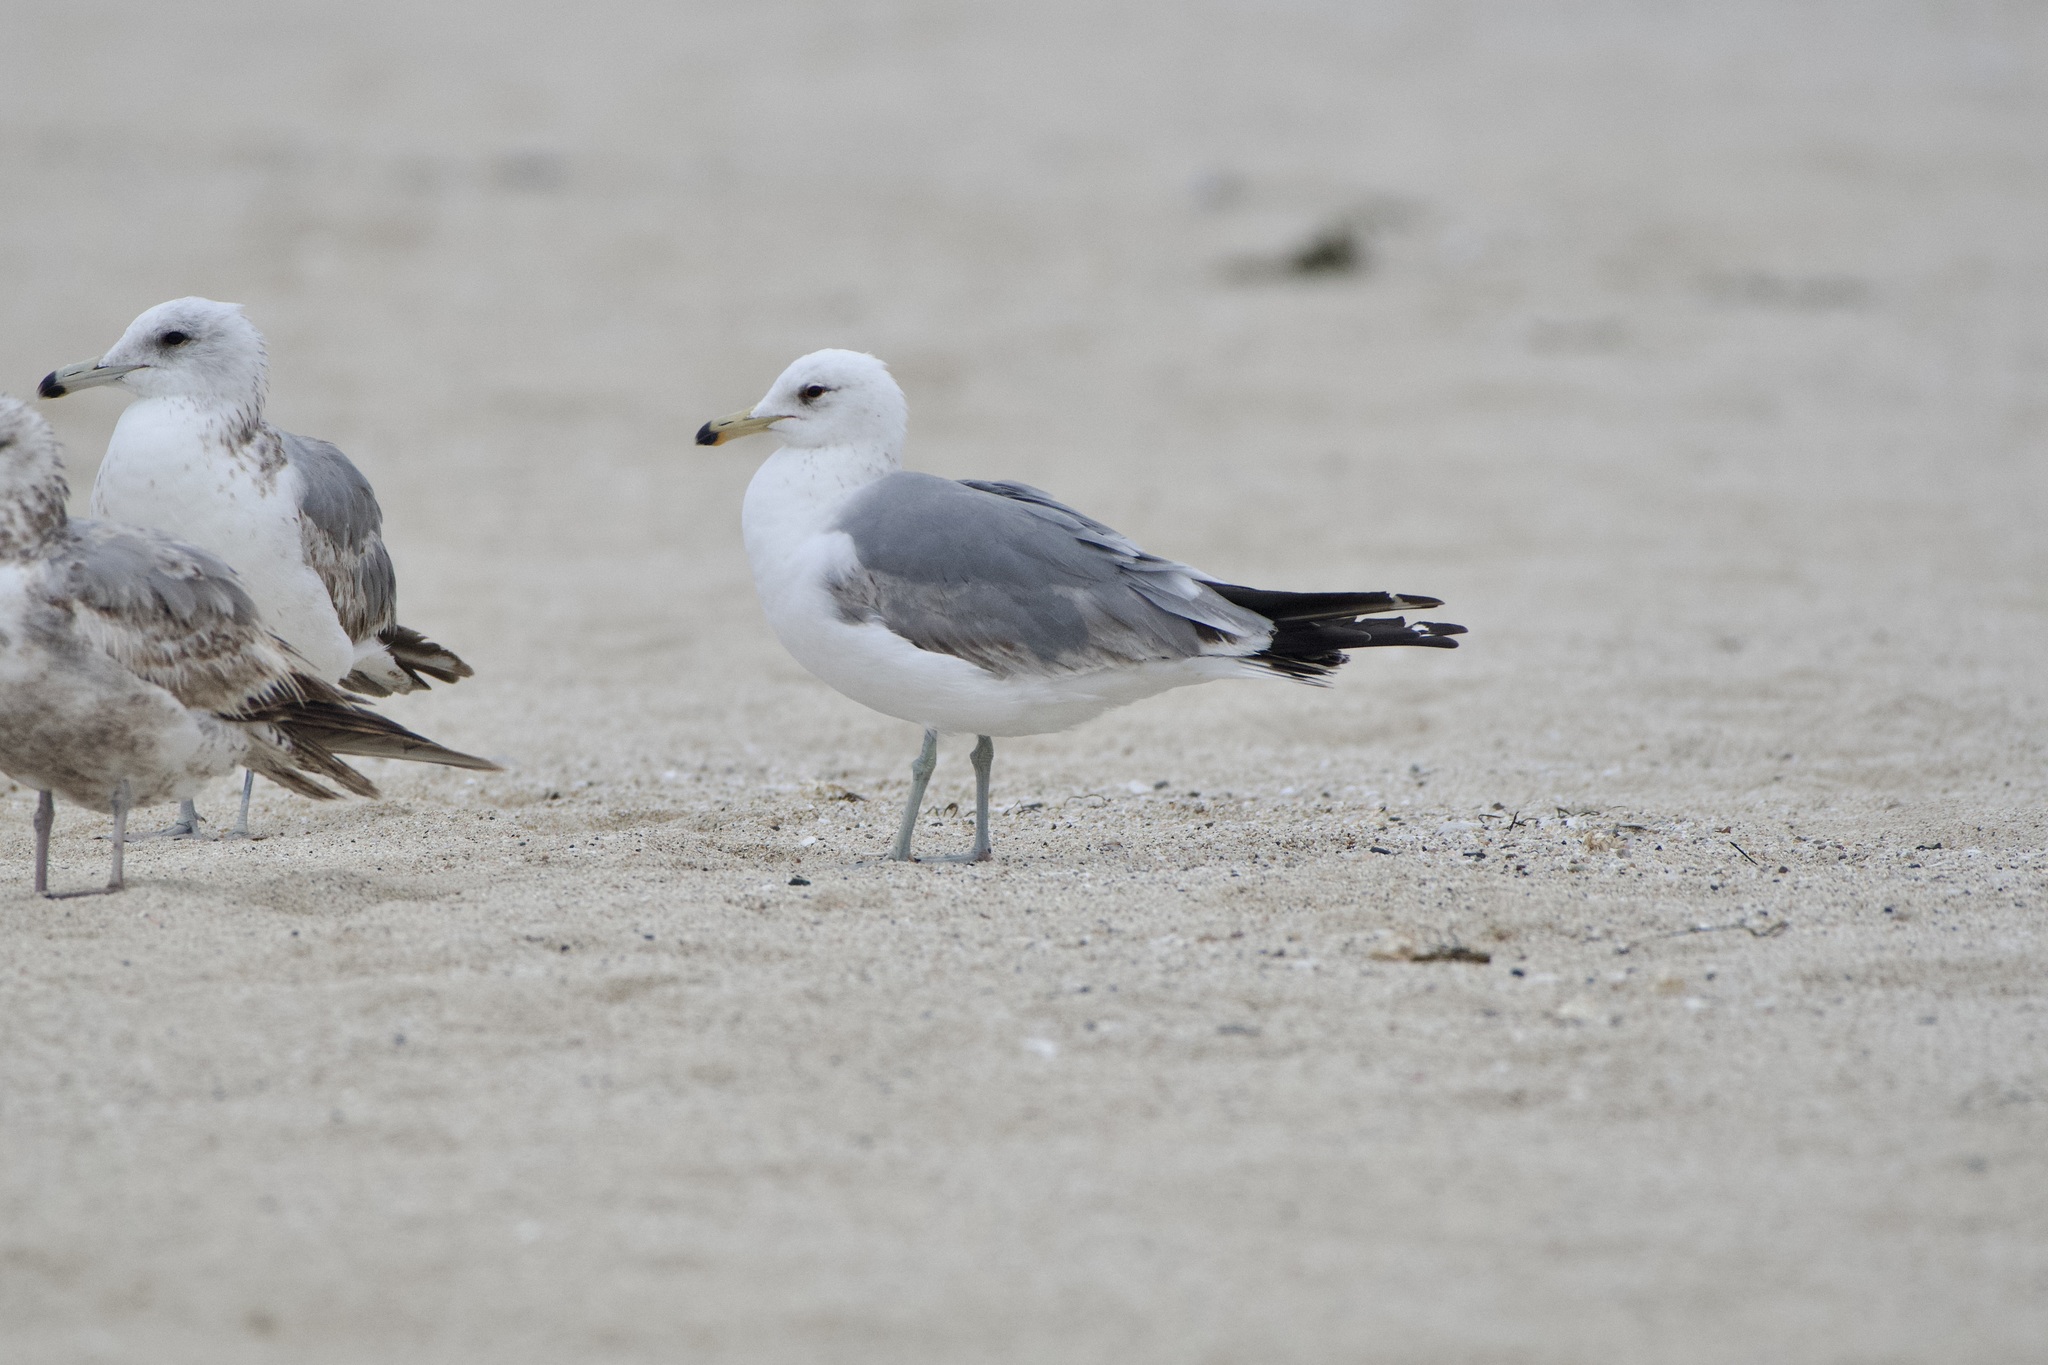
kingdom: Animalia
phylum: Chordata
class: Aves
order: Charadriiformes
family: Laridae
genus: Larus
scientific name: Larus californicus
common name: California gull
